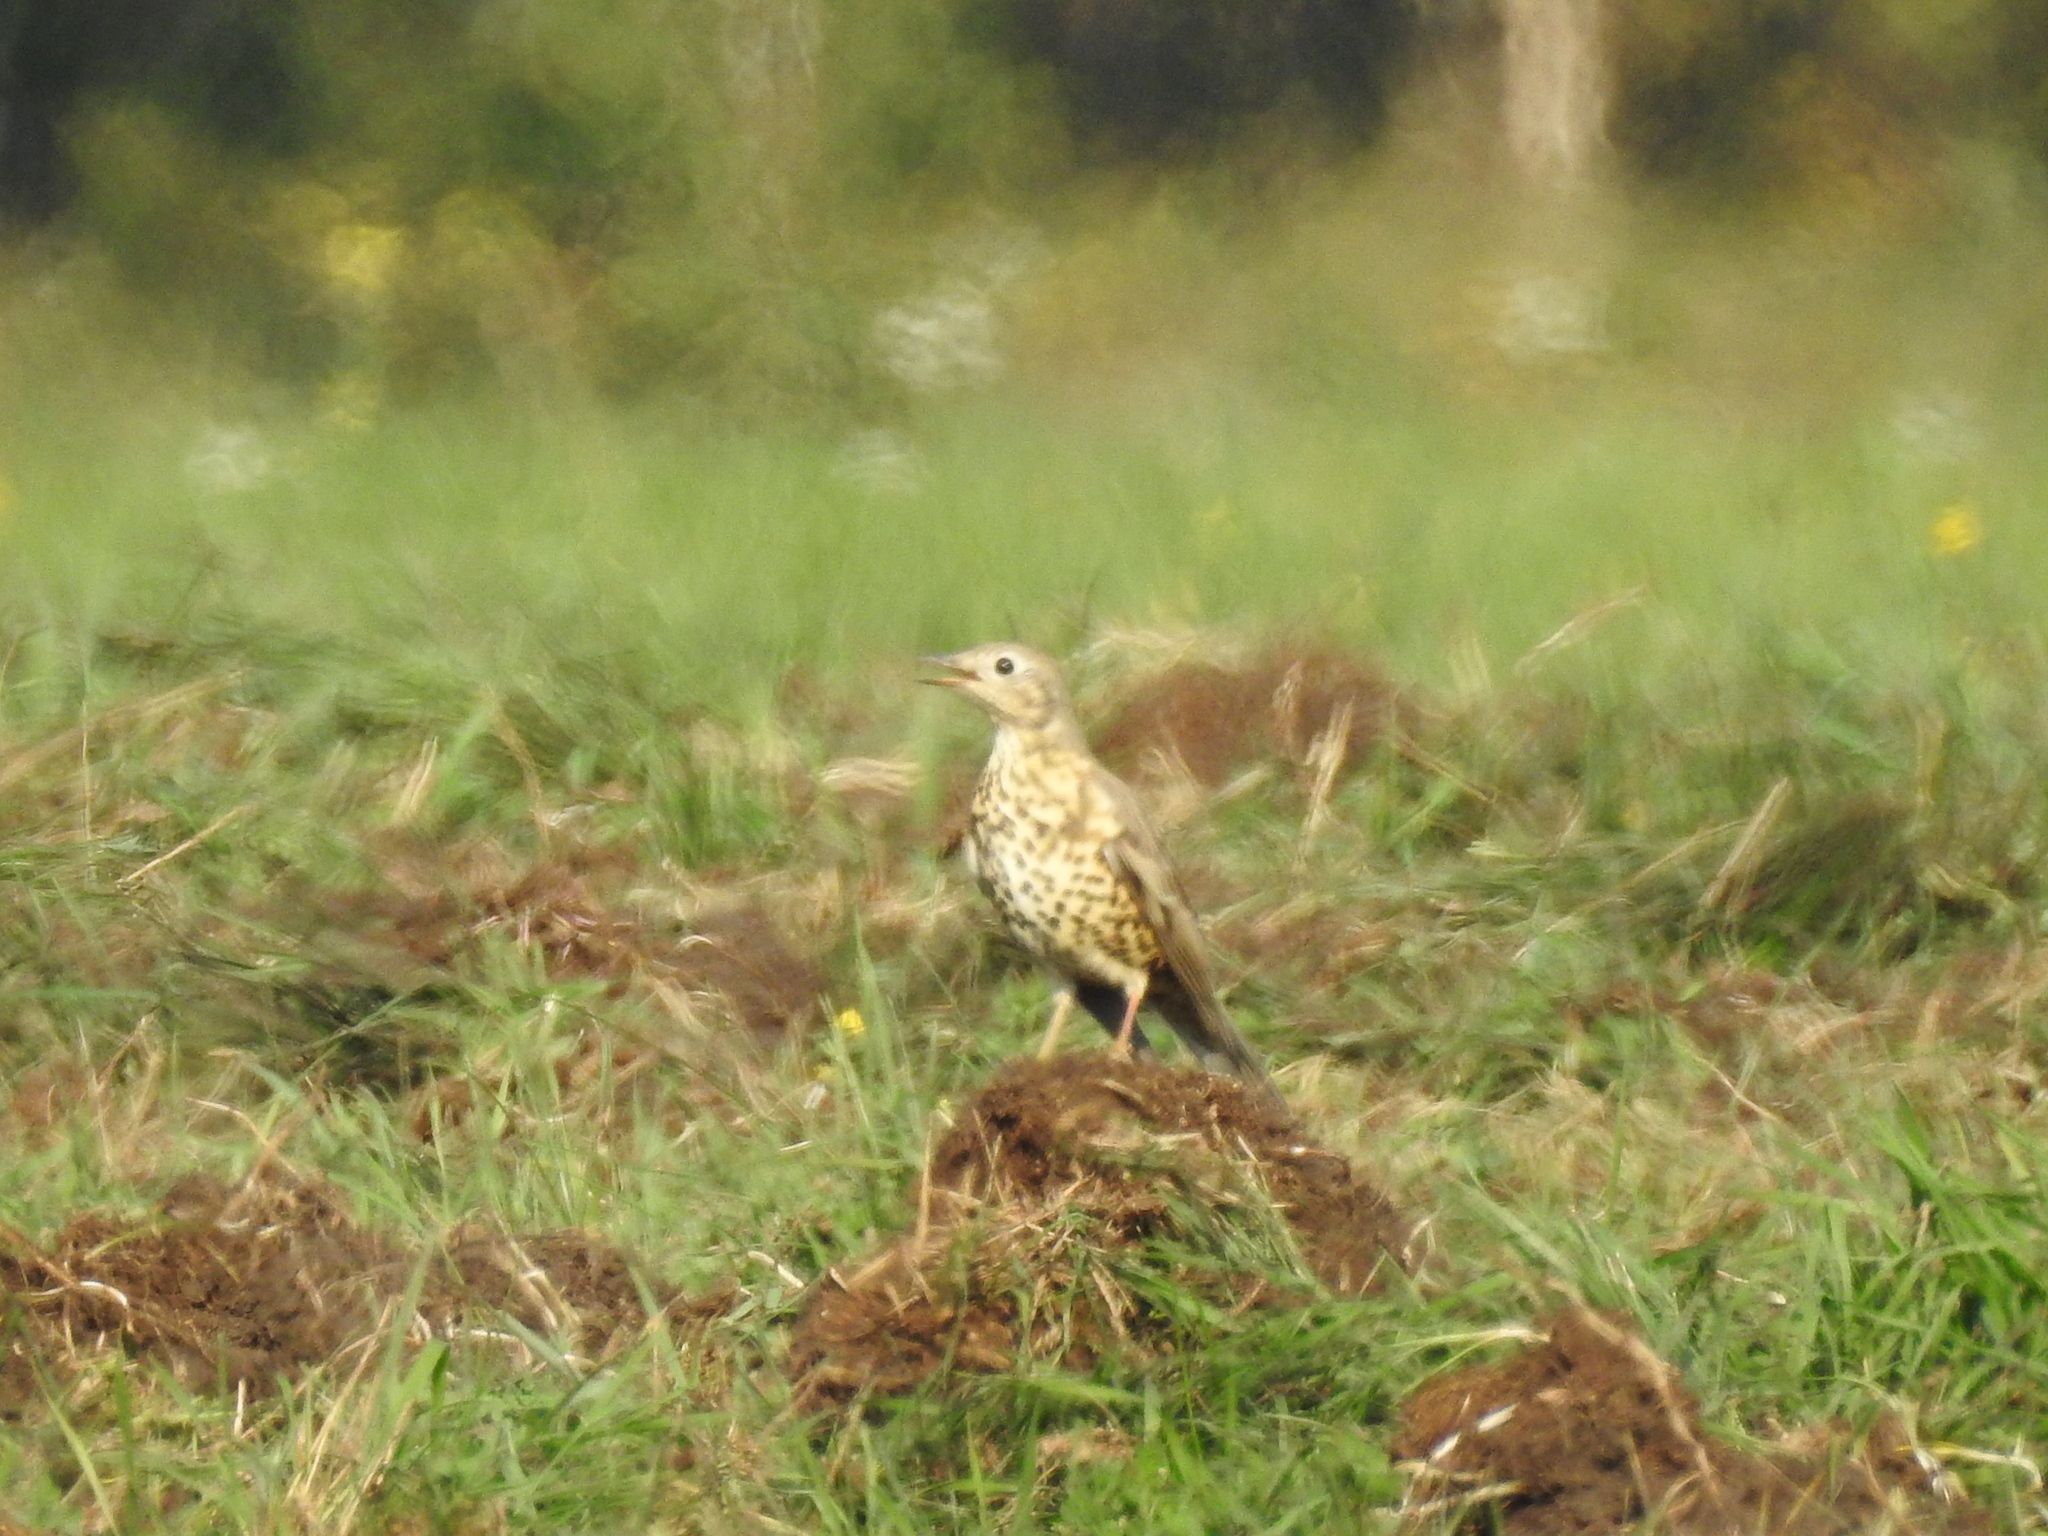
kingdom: Animalia
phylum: Chordata
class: Aves
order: Passeriformes
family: Turdidae
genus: Turdus
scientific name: Turdus viscivorus
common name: Mistle thrush
